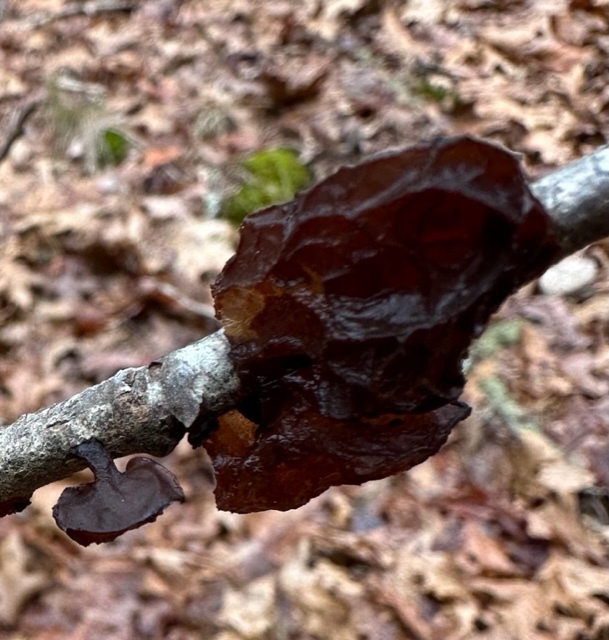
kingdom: Fungi
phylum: Basidiomycota
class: Agaricomycetes
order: Auriculariales
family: Auriculariaceae
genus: Exidia
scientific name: Exidia
